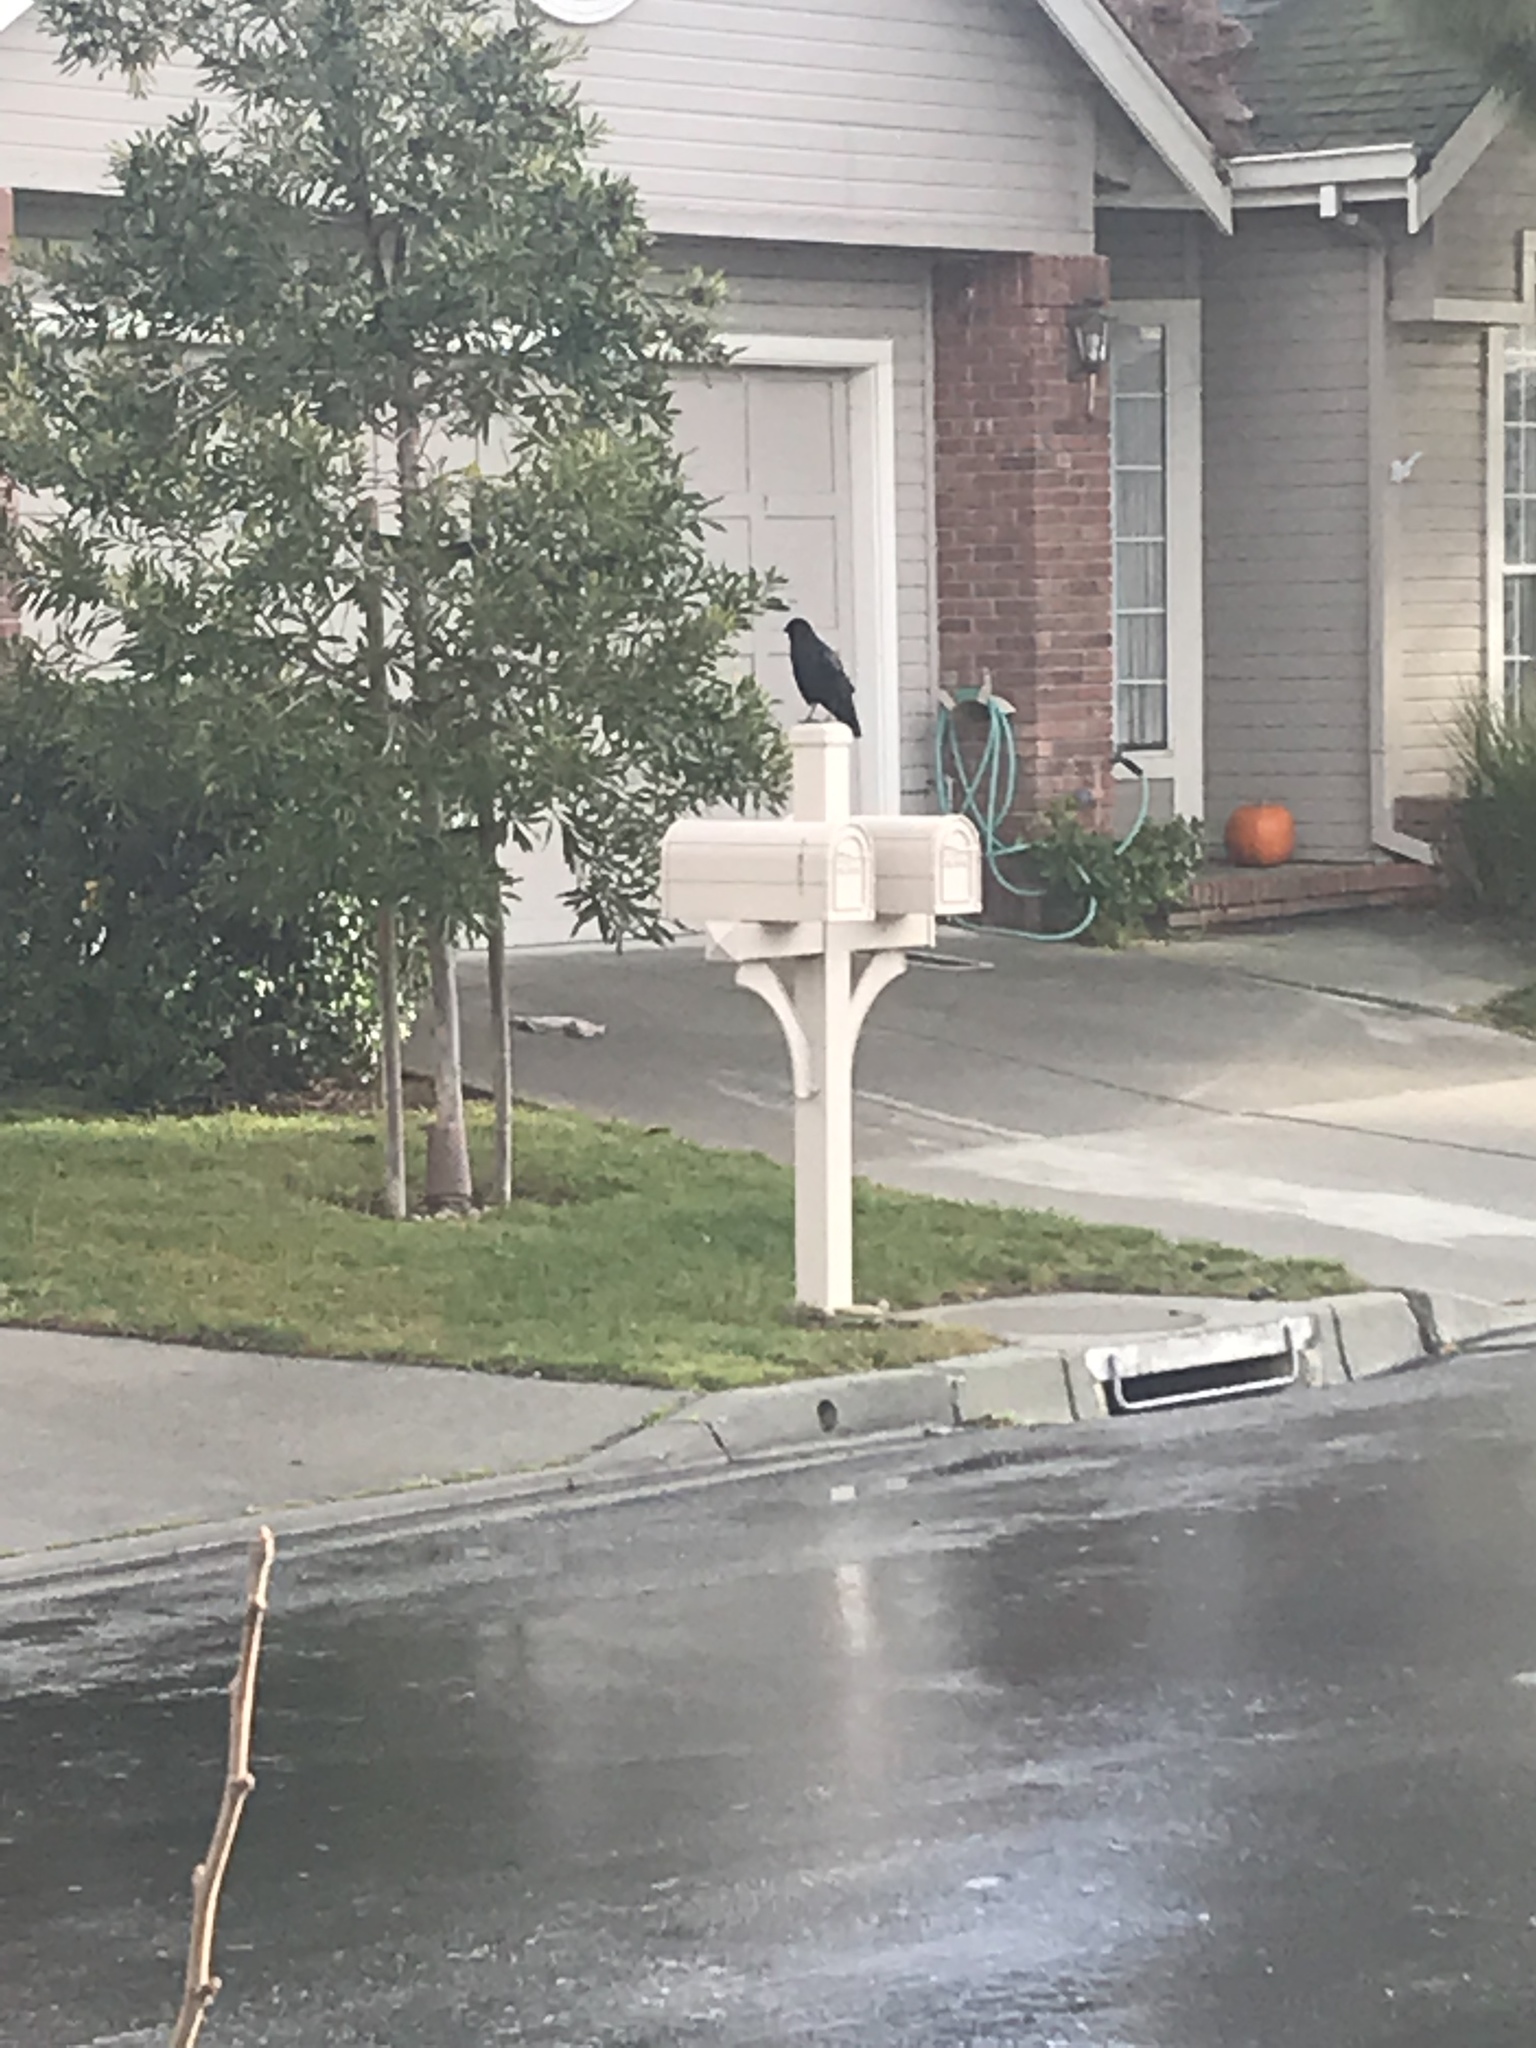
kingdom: Animalia
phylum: Chordata
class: Aves
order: Passeriformes
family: Corvidae
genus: Corvus
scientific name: Corvus brachyrhynchos
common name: American crow
